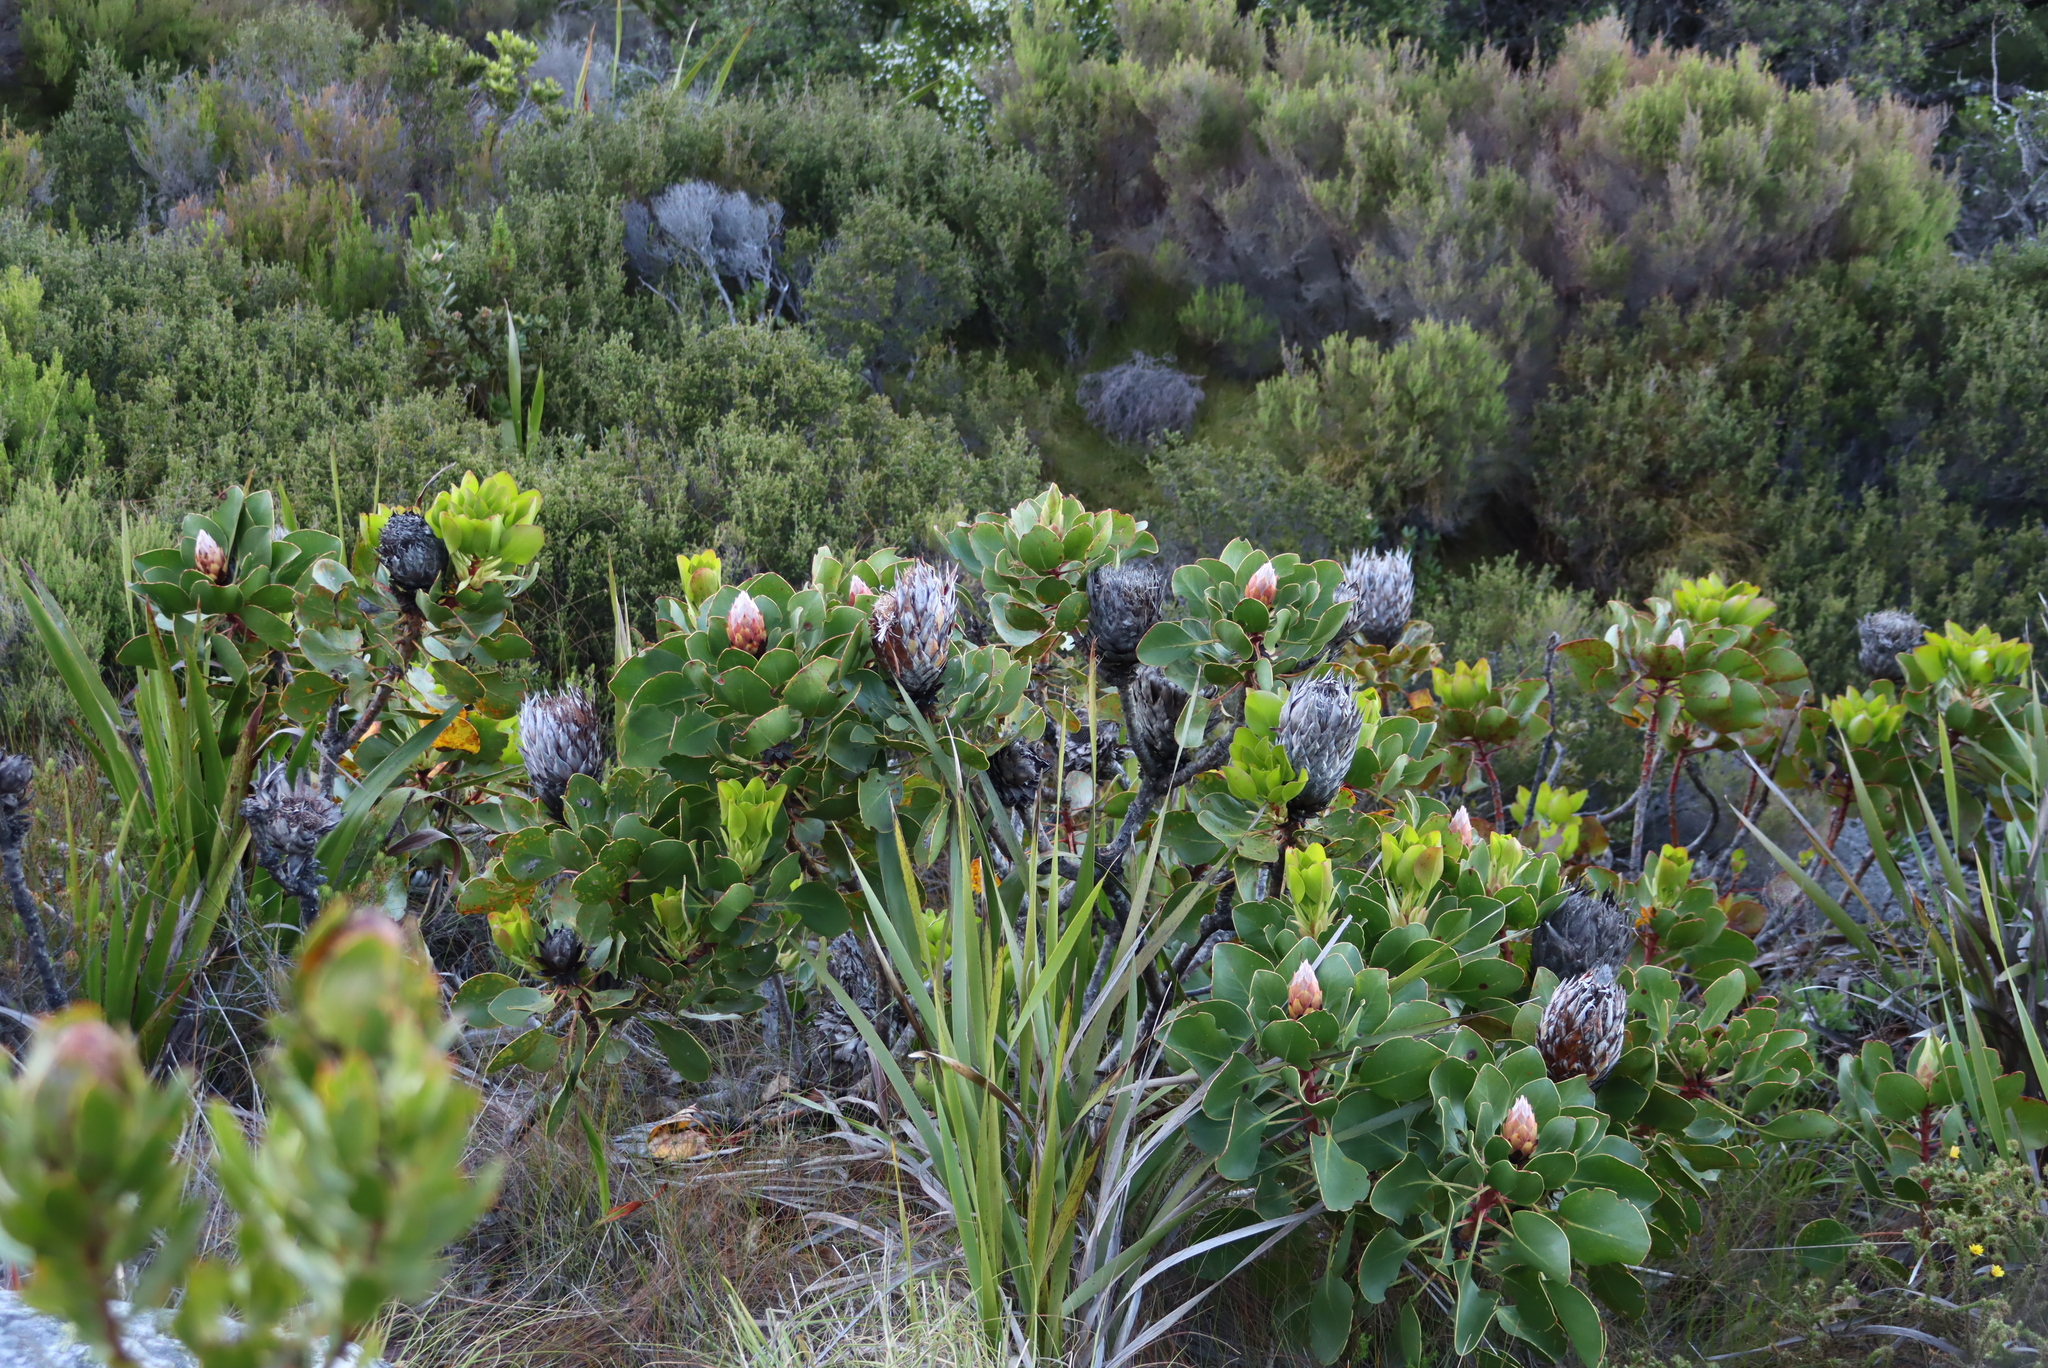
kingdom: Plantae
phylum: Tracheophyta
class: Magnoliopsida
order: Proteales
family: Proteaceae
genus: Protea
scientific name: Protea cynaroides
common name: King protea
